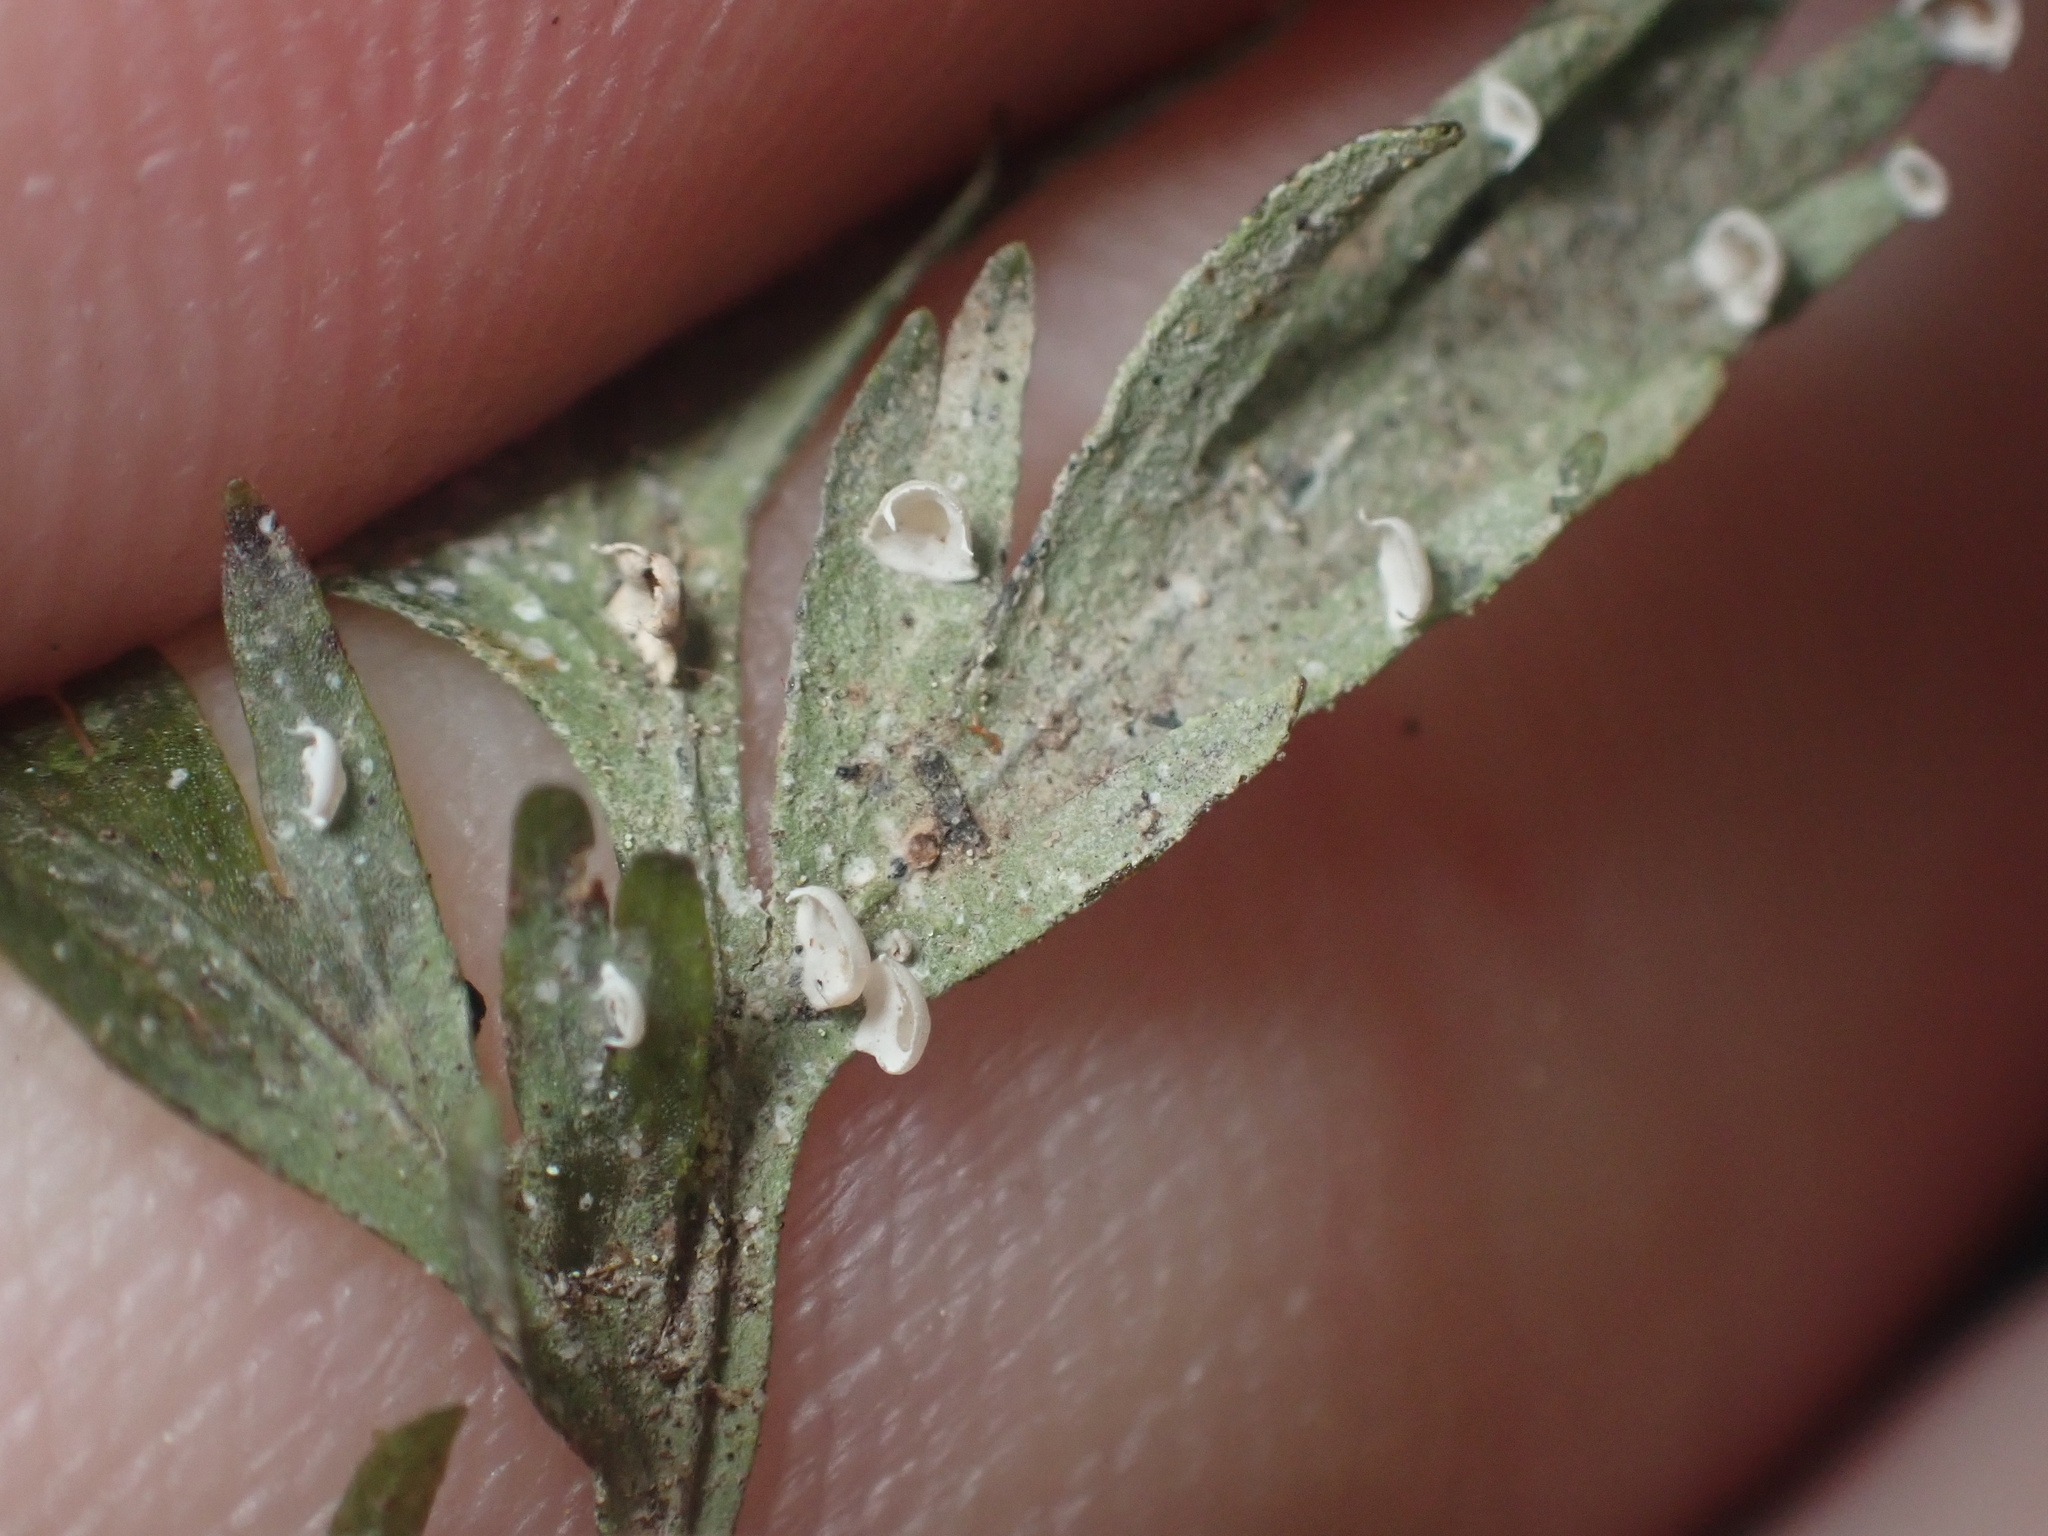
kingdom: Fungi
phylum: Ascomycota
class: Lecanoromycetes
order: Lecanorales
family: Byssolomataceae
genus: Badimiella
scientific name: Badimiella pteridophila
